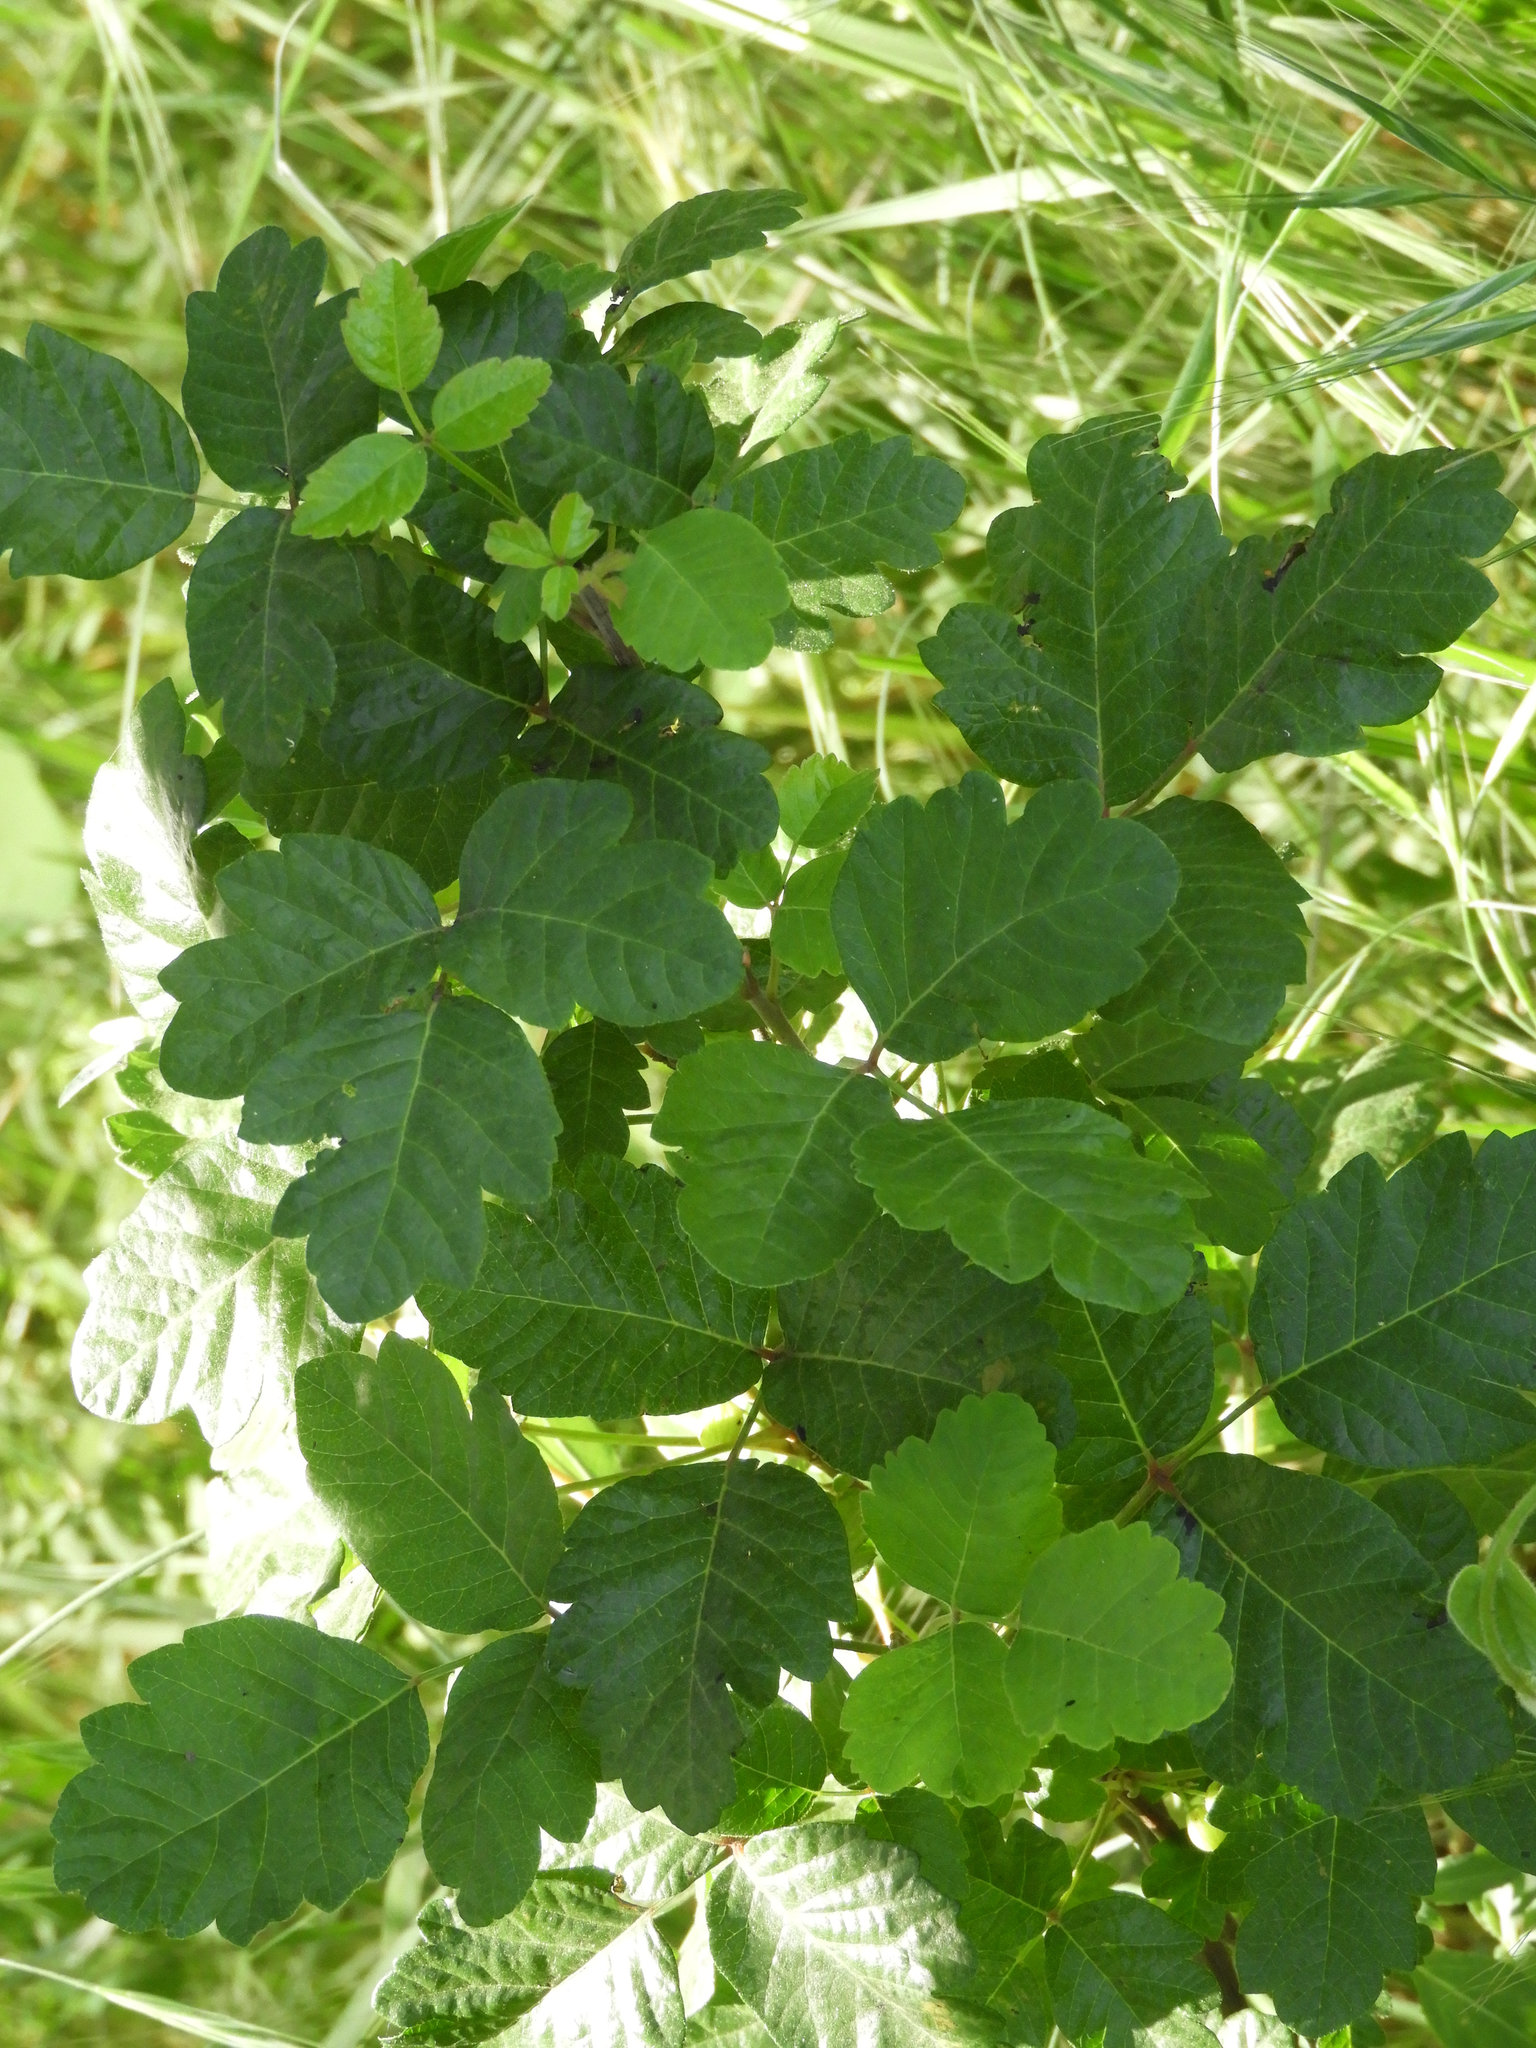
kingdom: Plantae
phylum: Tracheophyta
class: Magnoliopsida
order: Sapindales
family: Anacardiaceae
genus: Toxicodendron
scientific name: Toxicodendron diversilobum
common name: Pacific poison-oak
